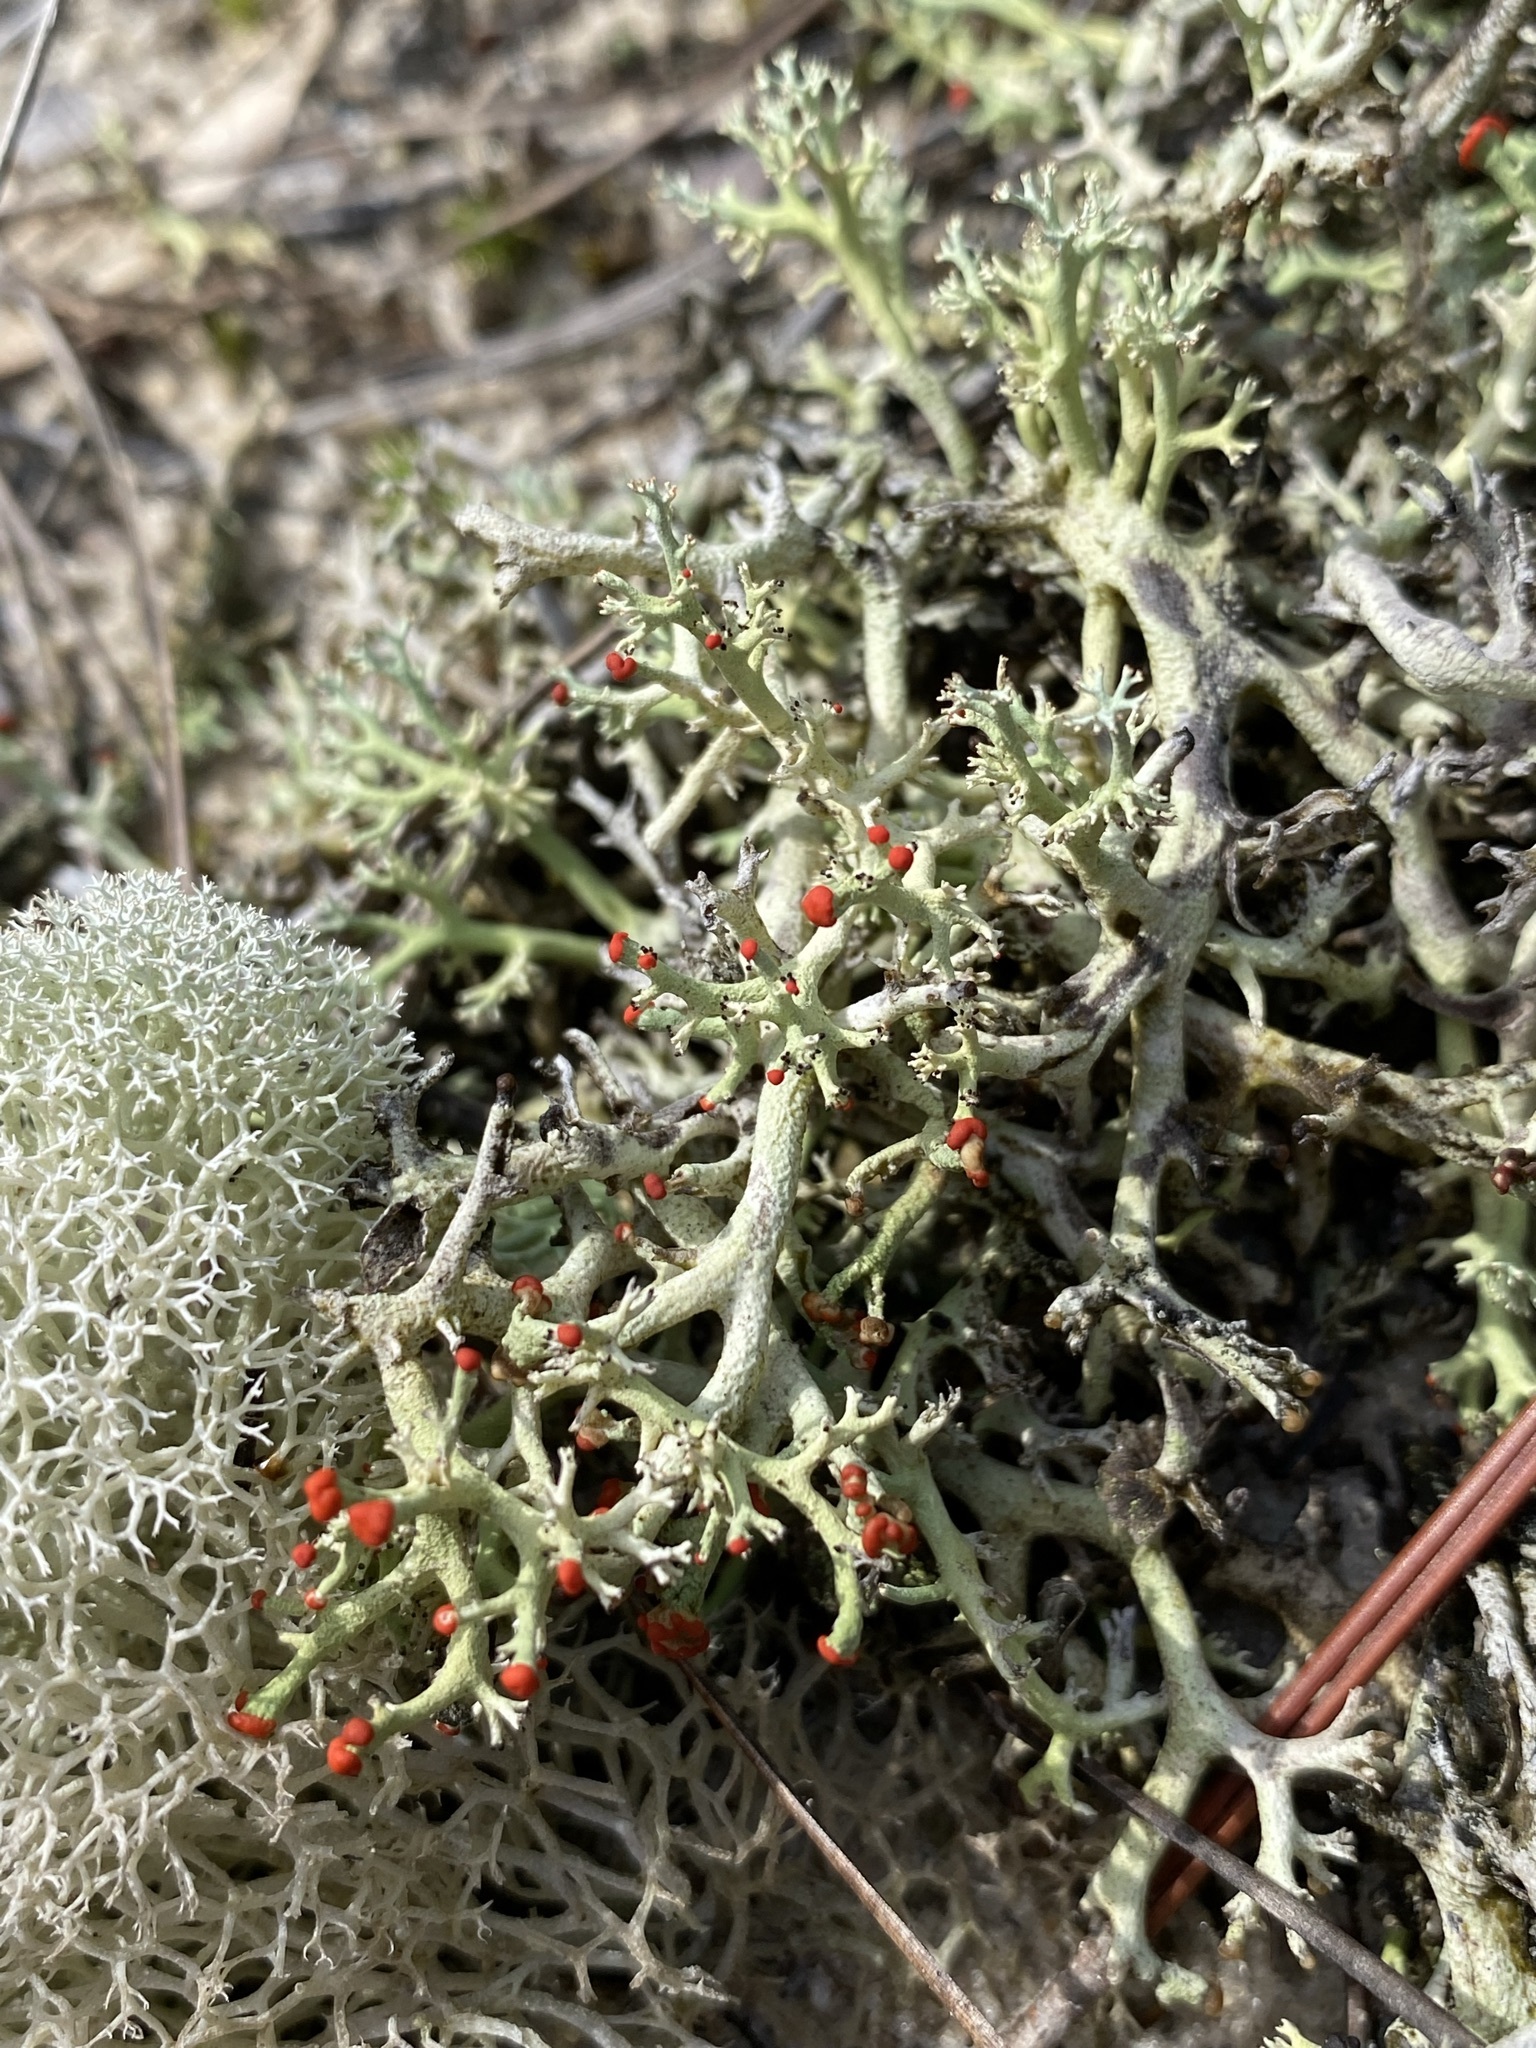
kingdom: Fungi
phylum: Ascomycota
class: Lecanoromycetes
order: Lecanorales
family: Cladoniaceae
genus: Cladonia
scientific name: Cladonia leporina
